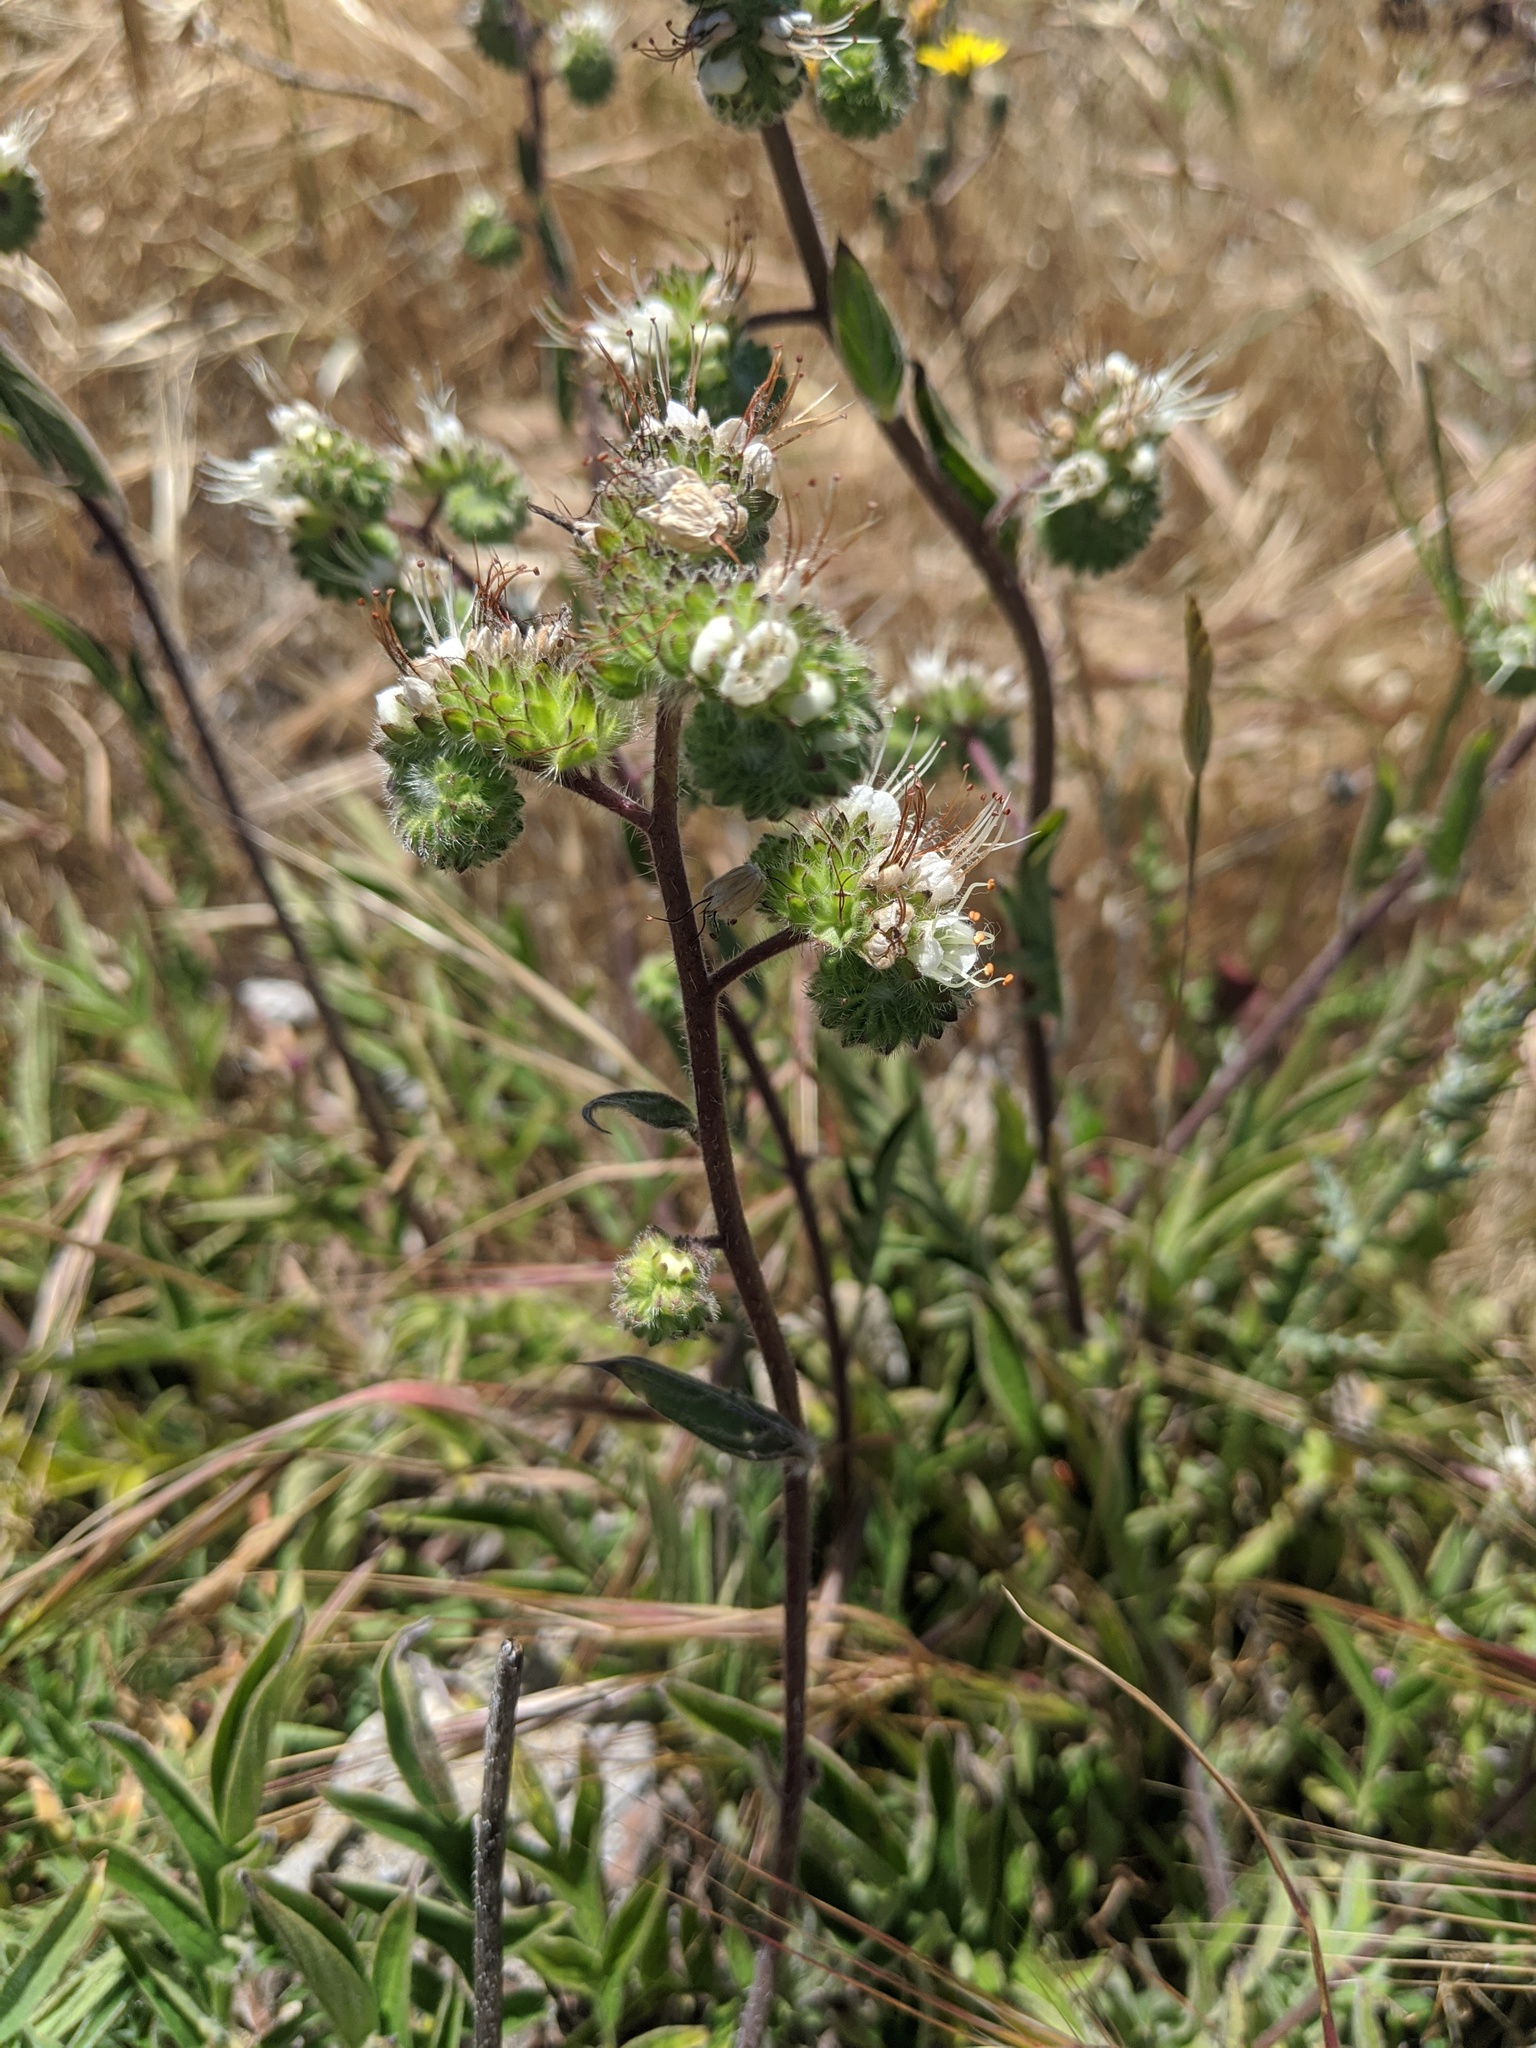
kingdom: Plantae
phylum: Tracheophyta
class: Magnoliopsida
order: Boraginales
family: Hydrophyllaceae
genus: Phacelia
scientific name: Phacelia imbricata
